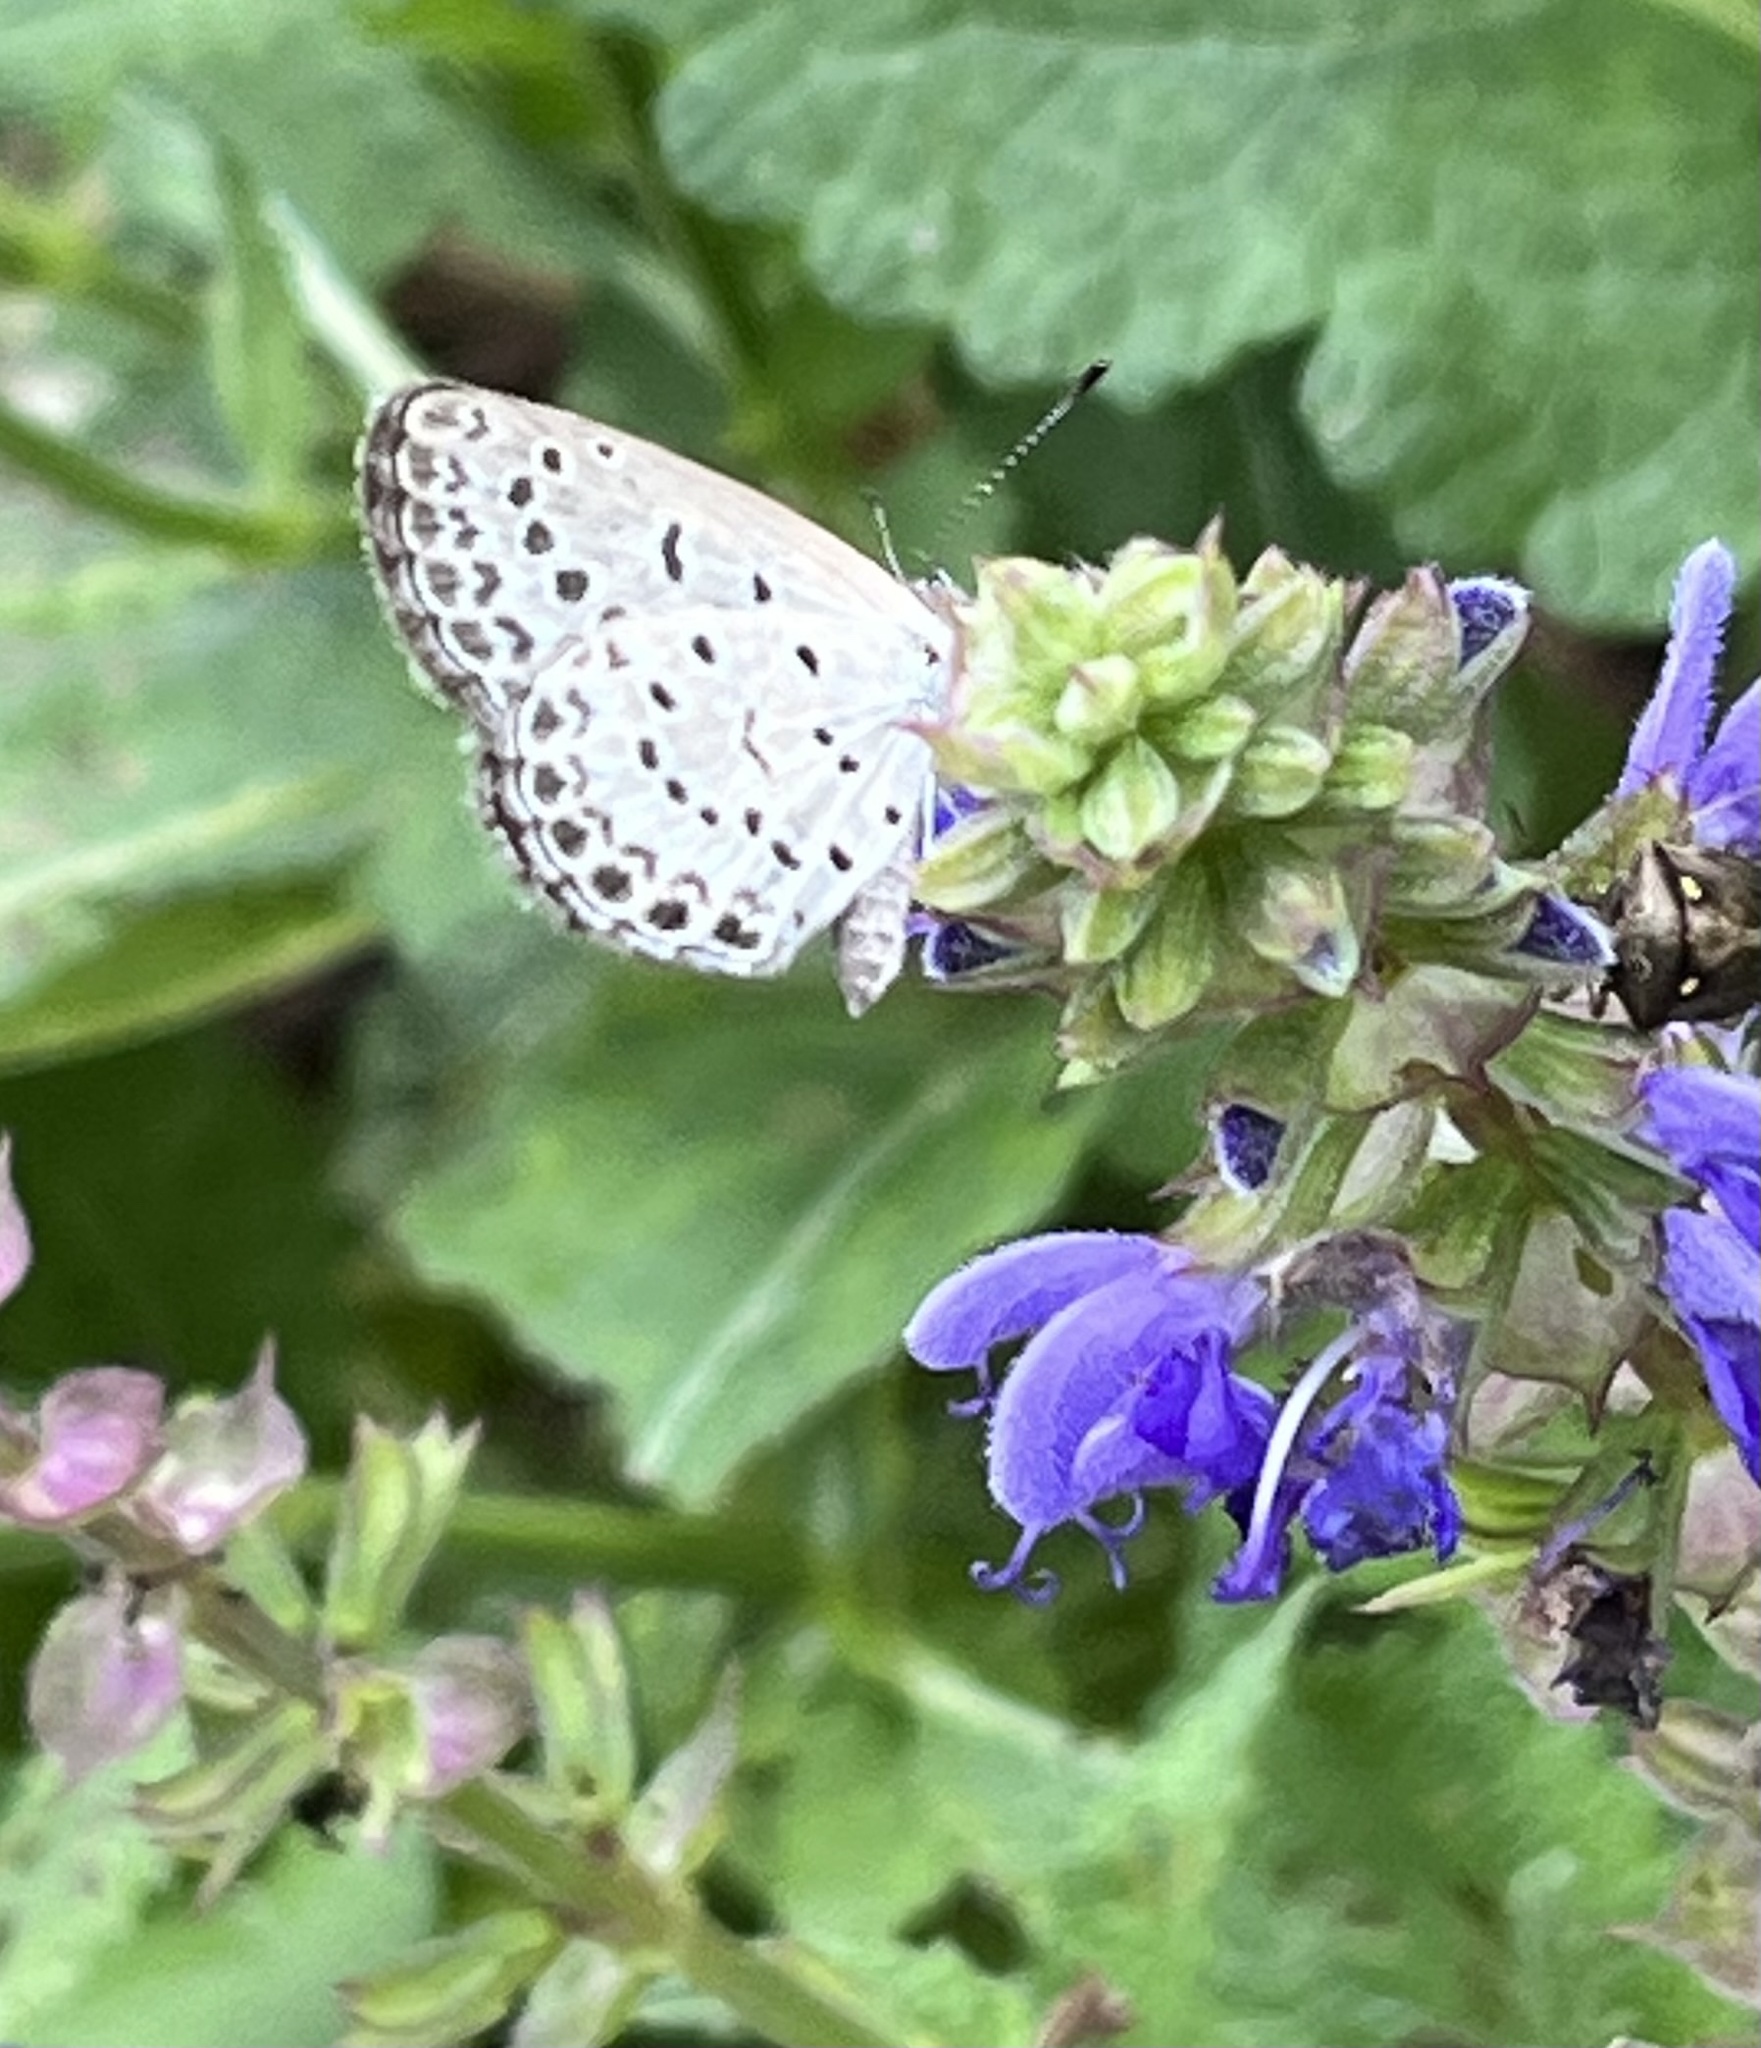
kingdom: Animalia
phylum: Arthropoda
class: Insecta
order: Lepidoptera
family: Lycaenidae
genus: Pseudozizeeria
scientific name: Pseudozizeeria maha
